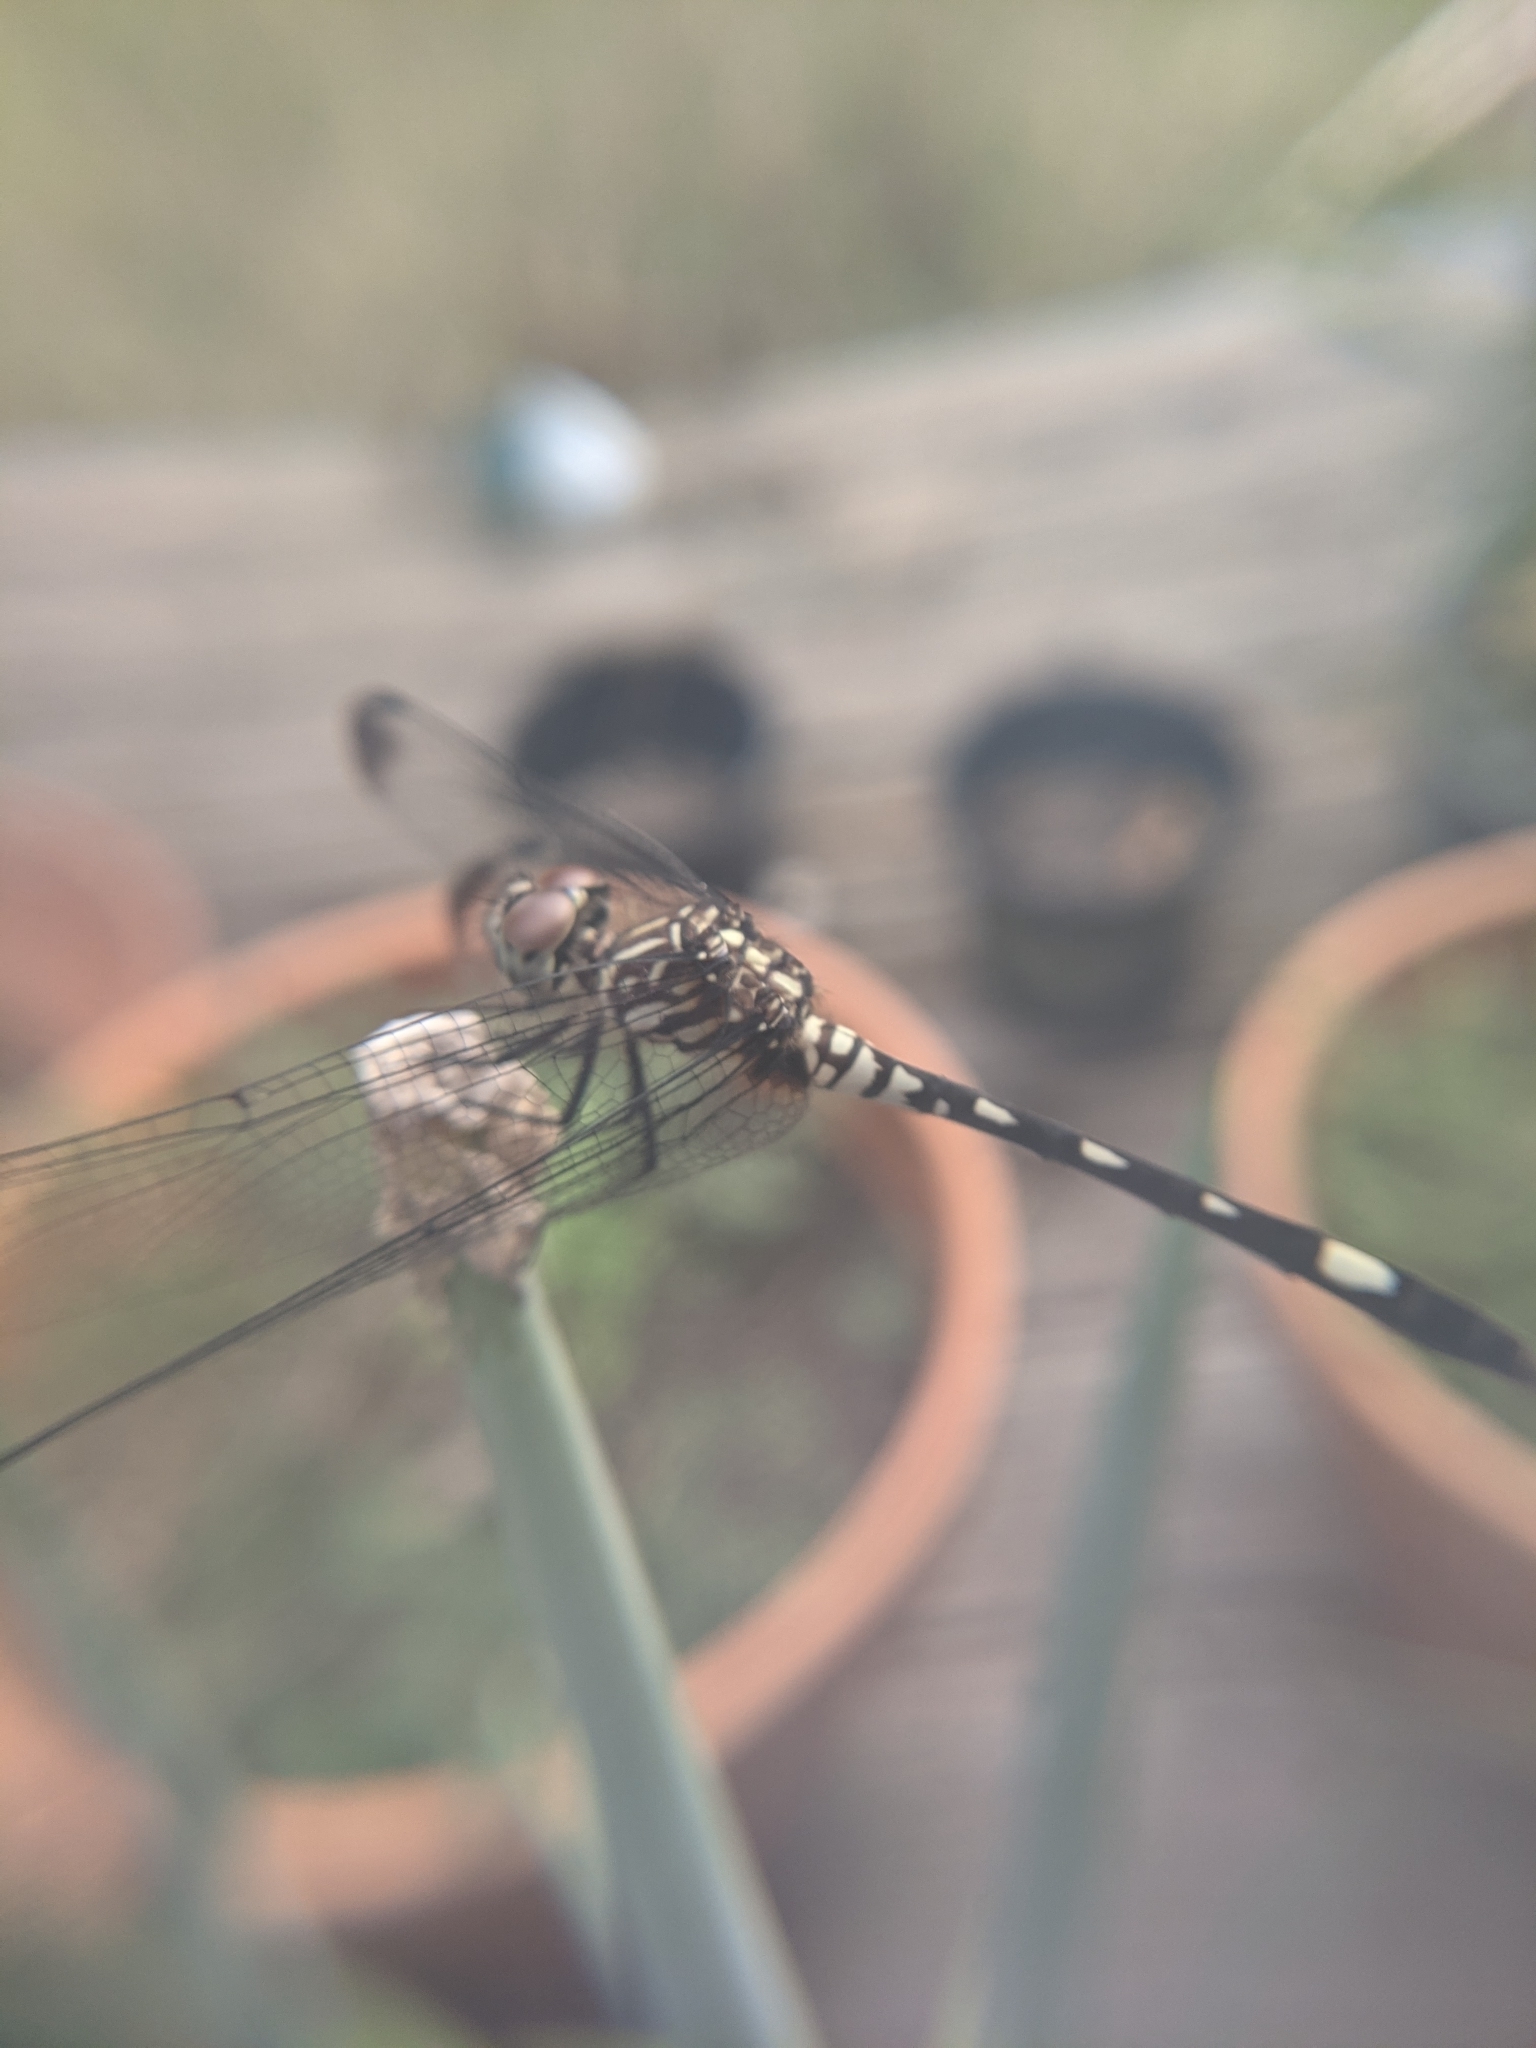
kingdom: Animalia
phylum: Arthropoda
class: Insecta
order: Odonata
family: Libellulidae
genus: Dythemis
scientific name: Dythemis velox
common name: Swift setwing
